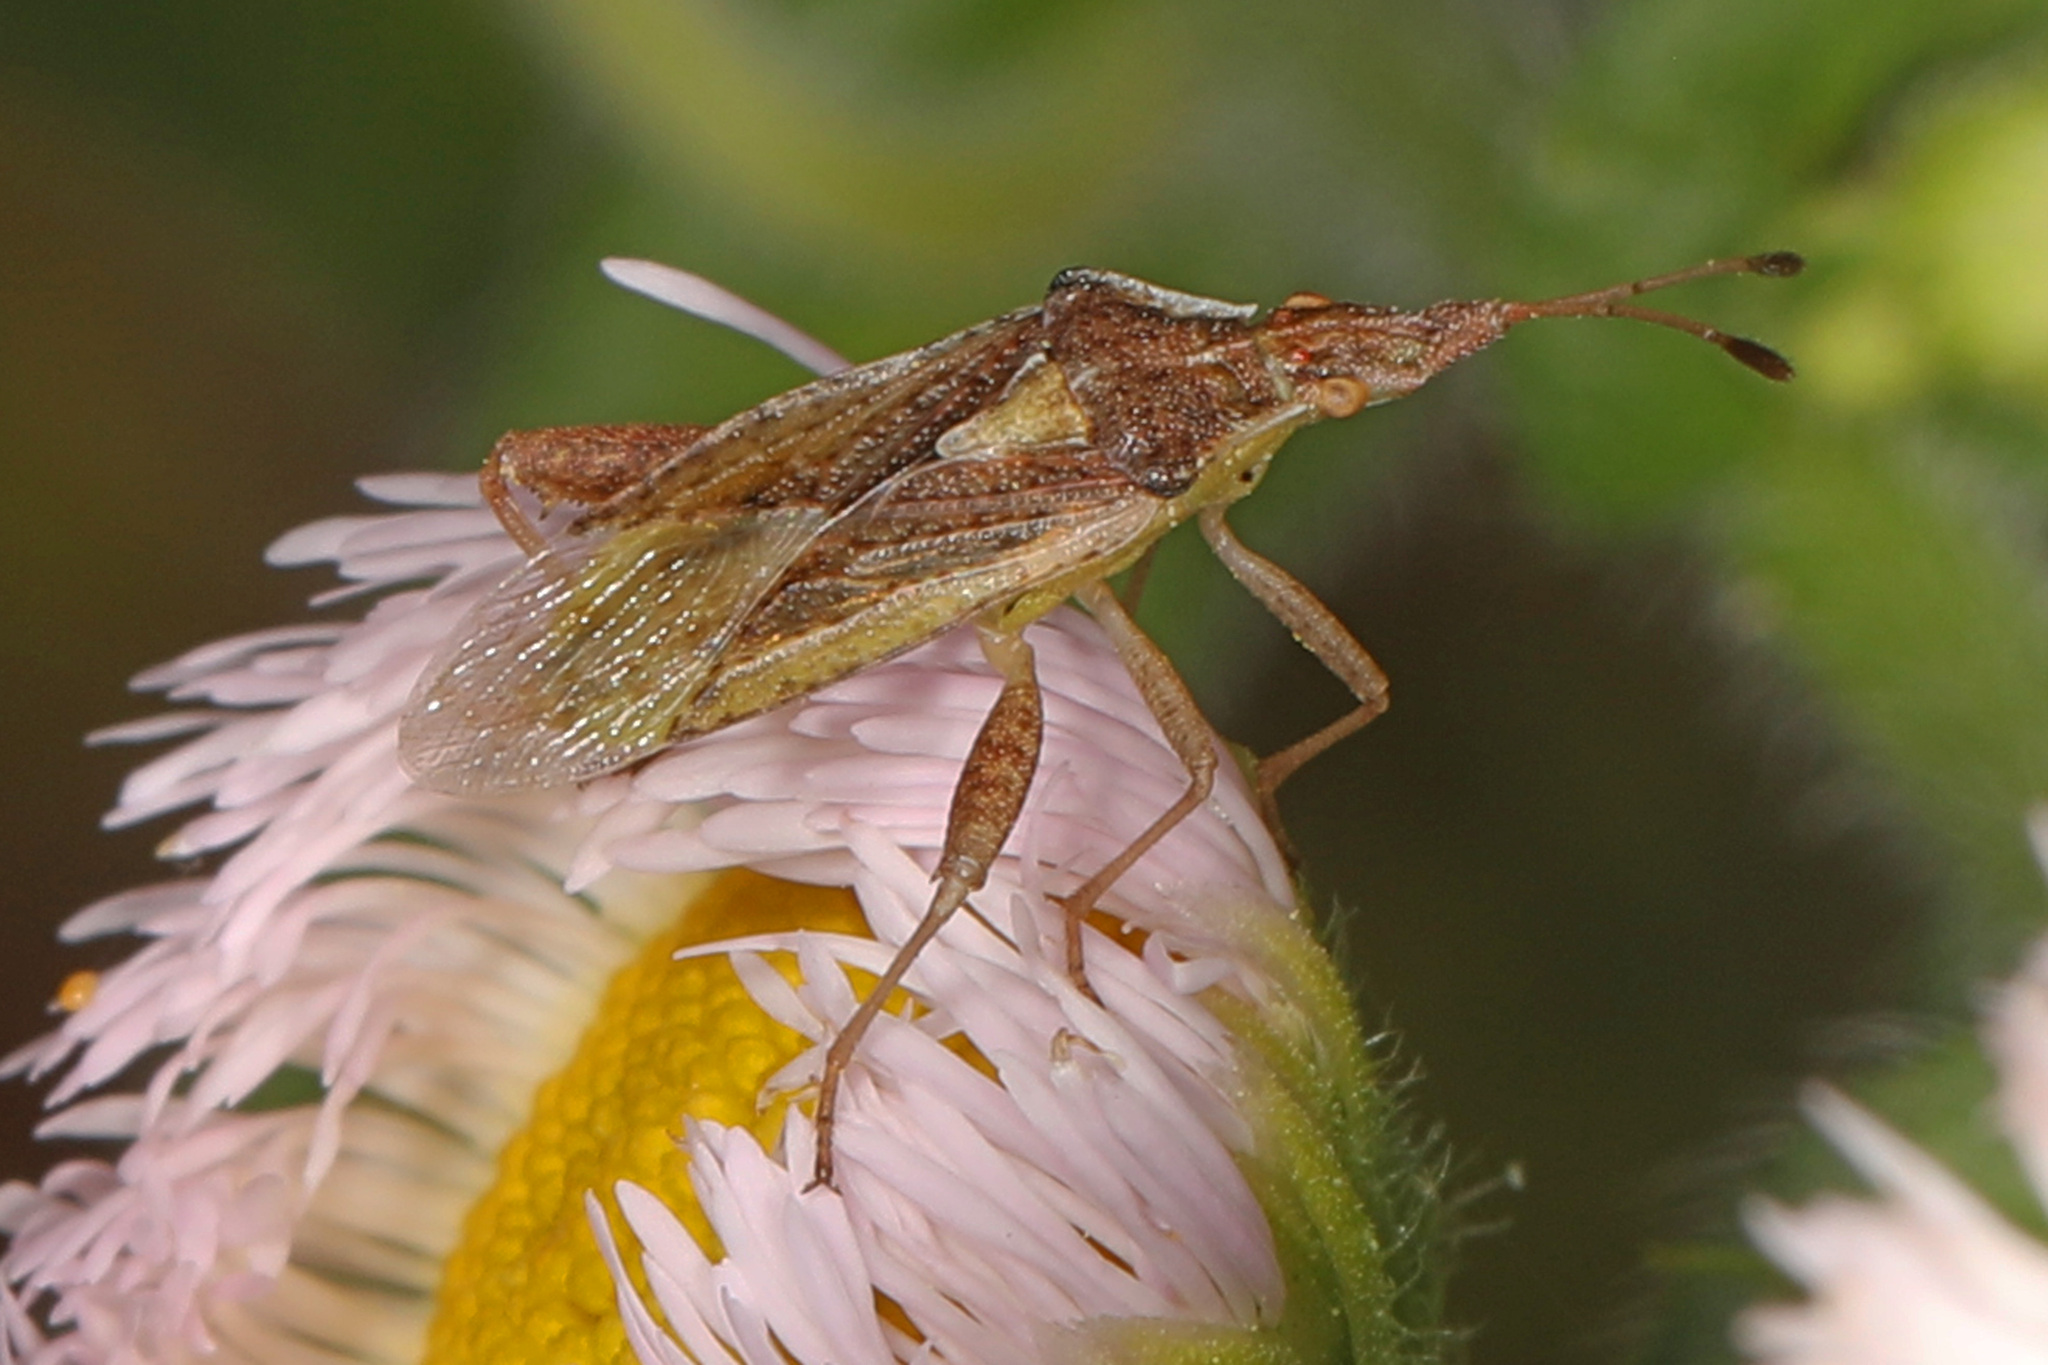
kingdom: Animalia
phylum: Arthropoda
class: Insecta
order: Hemiptera
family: Rhopalidae
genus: Harmostes
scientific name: Harmostes reflexulus
